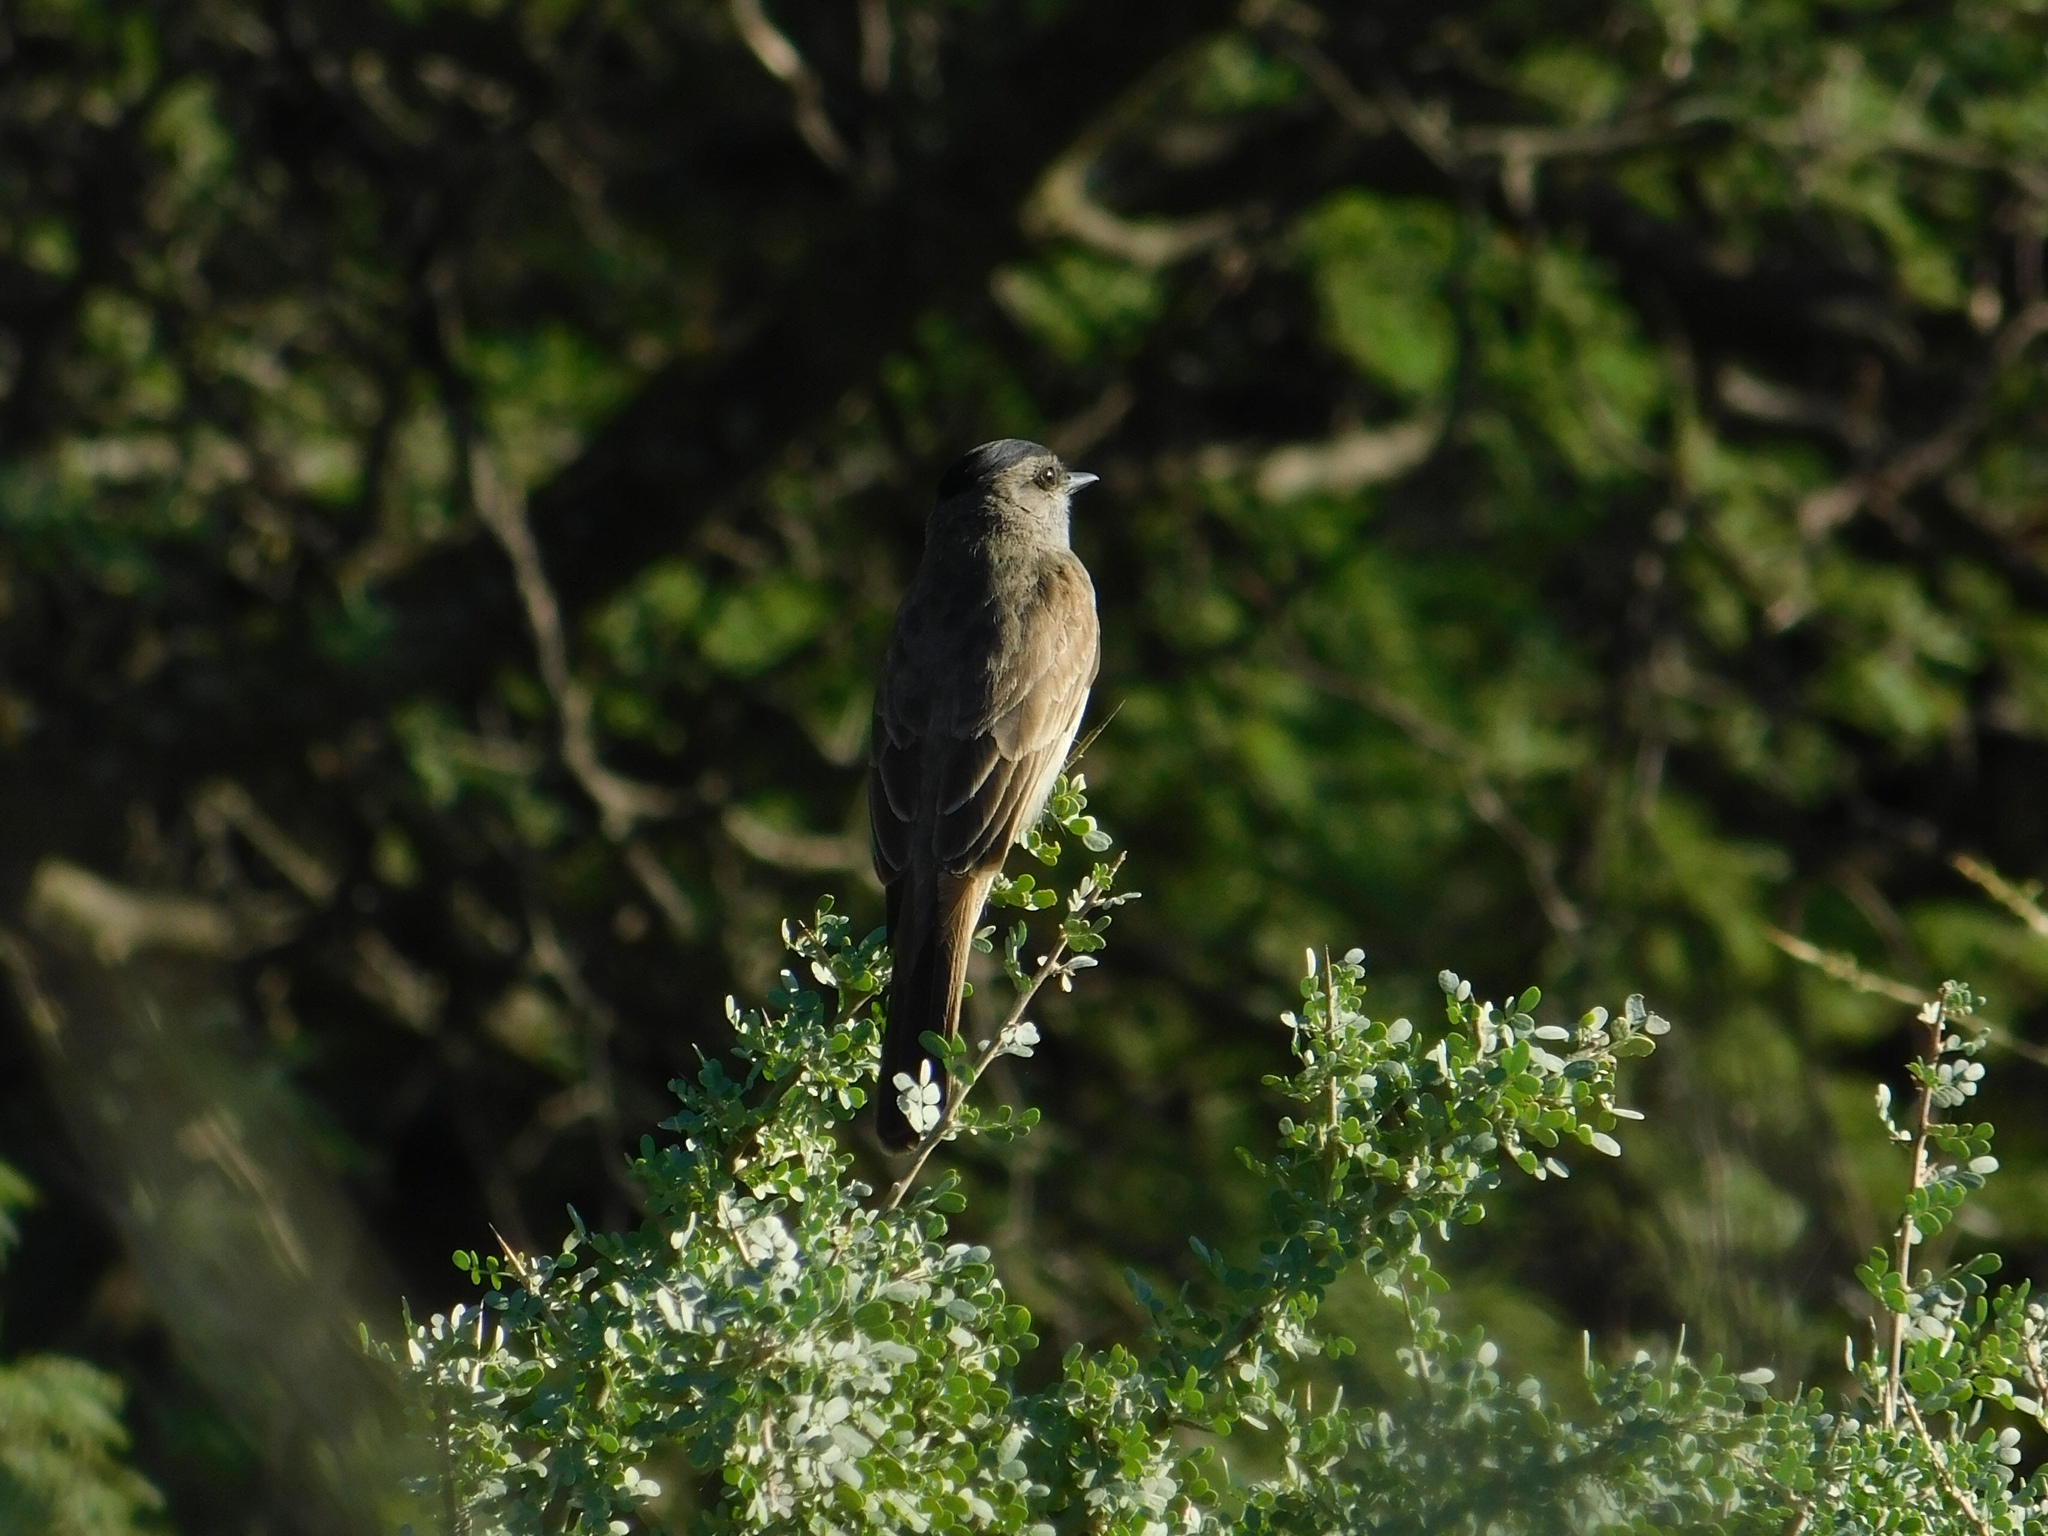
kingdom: Animalia
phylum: Chordata
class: Aves
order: Passeriformes
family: Tyrannidae
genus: Empidonomus
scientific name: Empidonomus aurantioatrocristatus
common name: Crowned slaty flycatcher
